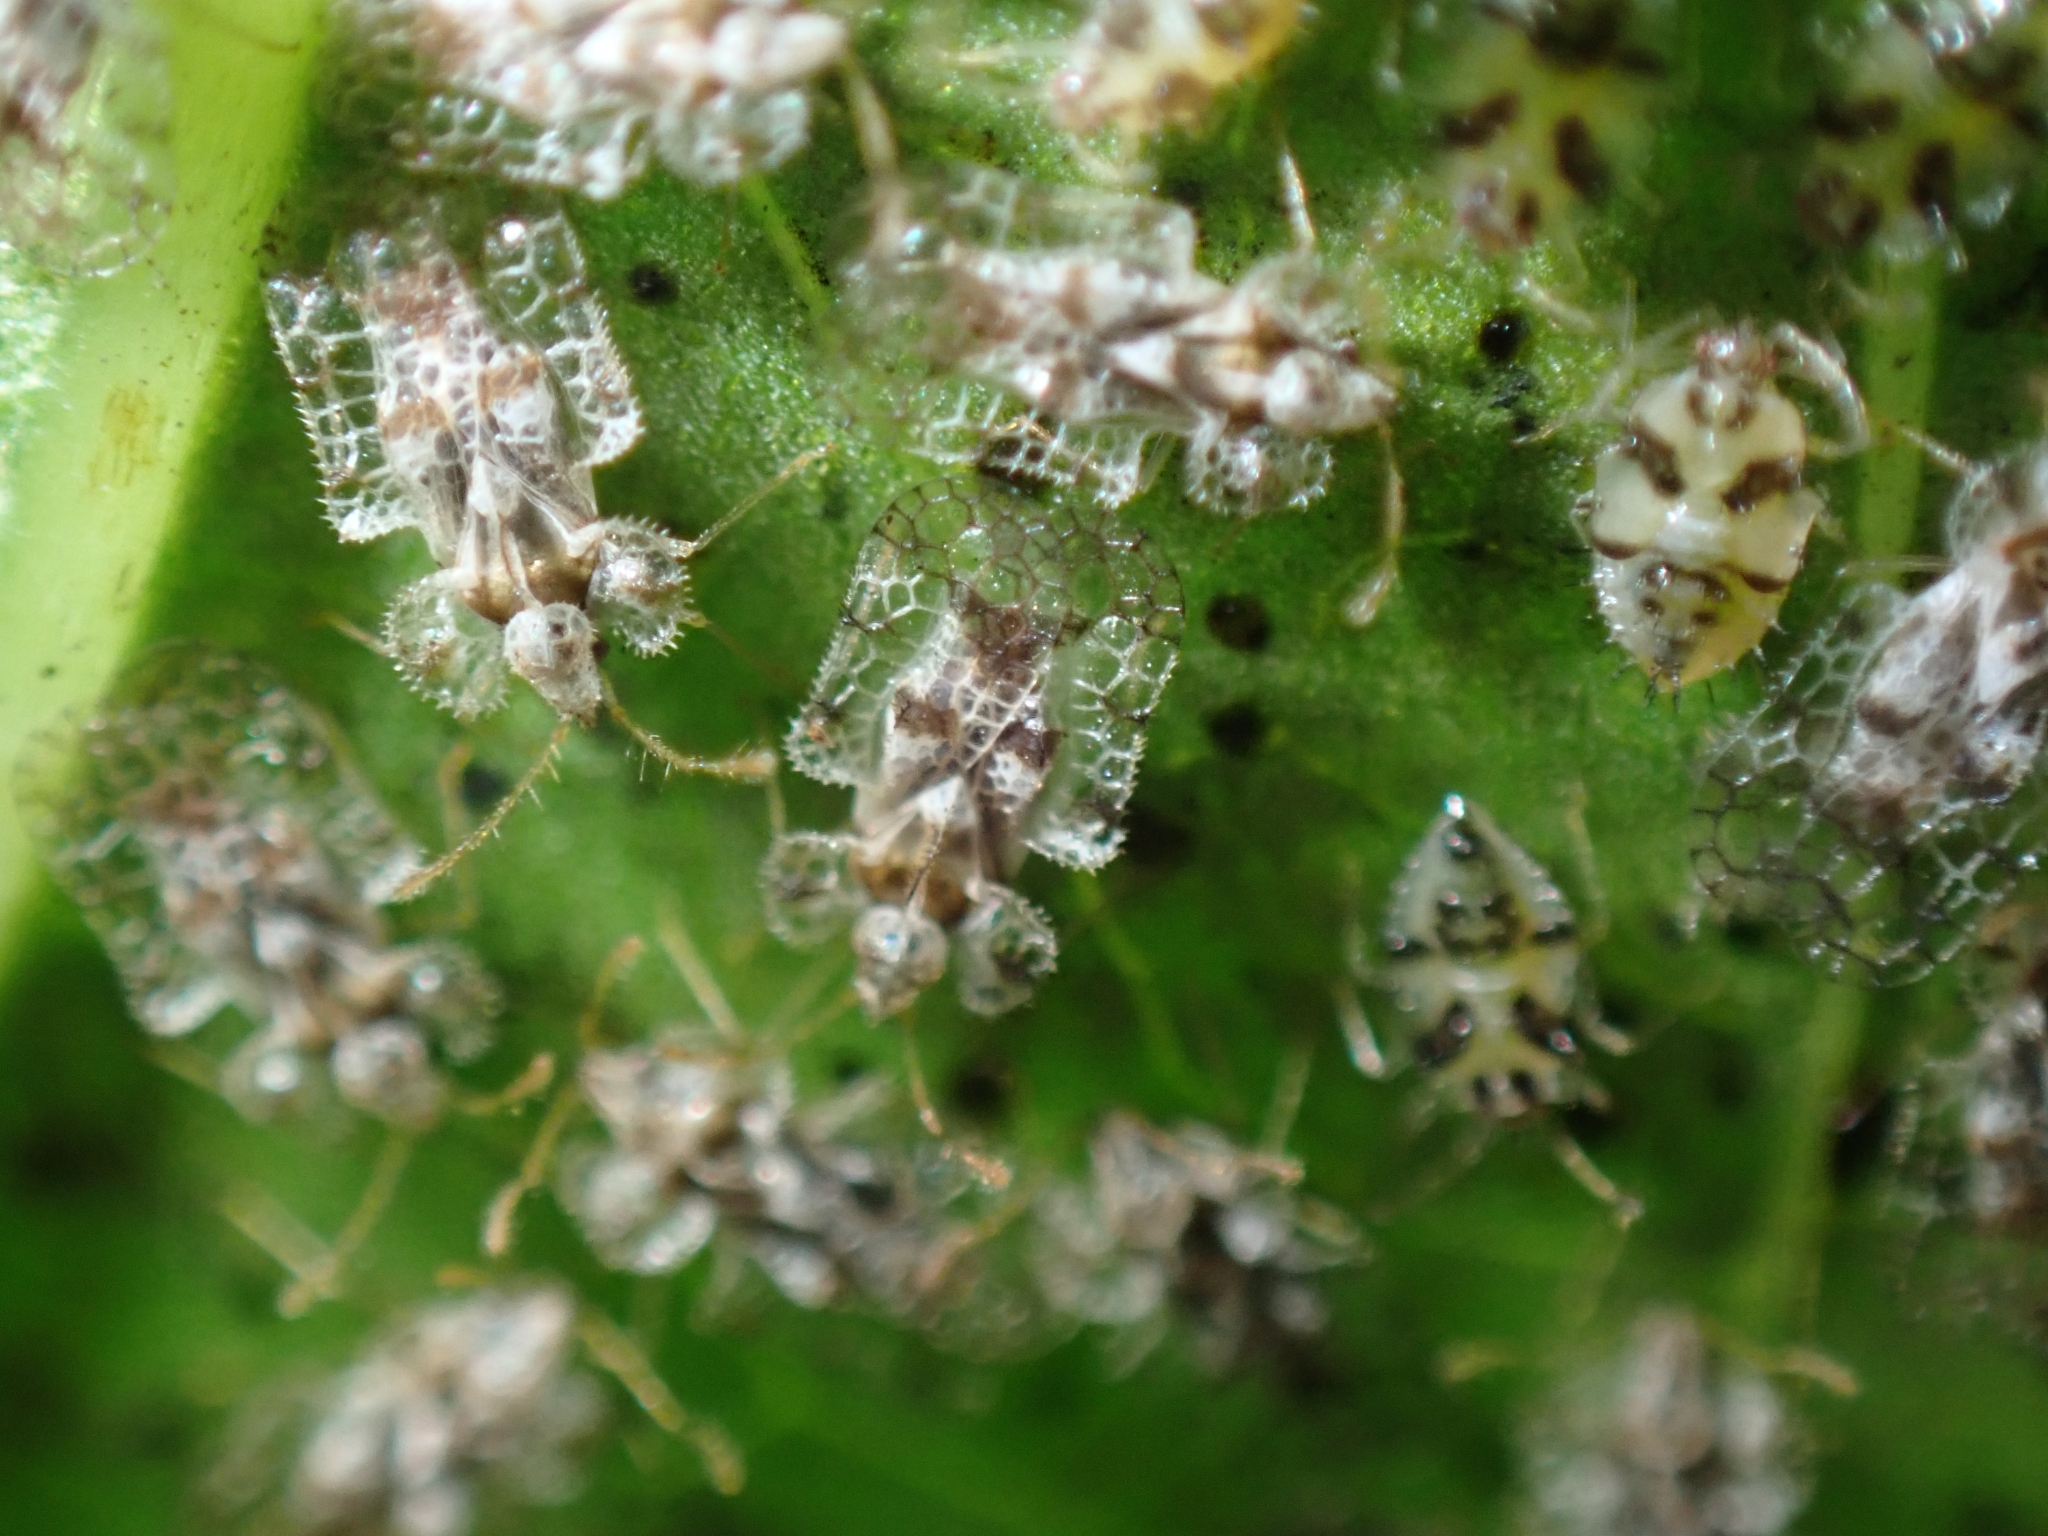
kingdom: Animalia
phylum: Arthropoda
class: Insecta
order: Hemiptera
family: Tingidae
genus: Corythucha
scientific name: Corythucha gossypii
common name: Cotton lace bug
